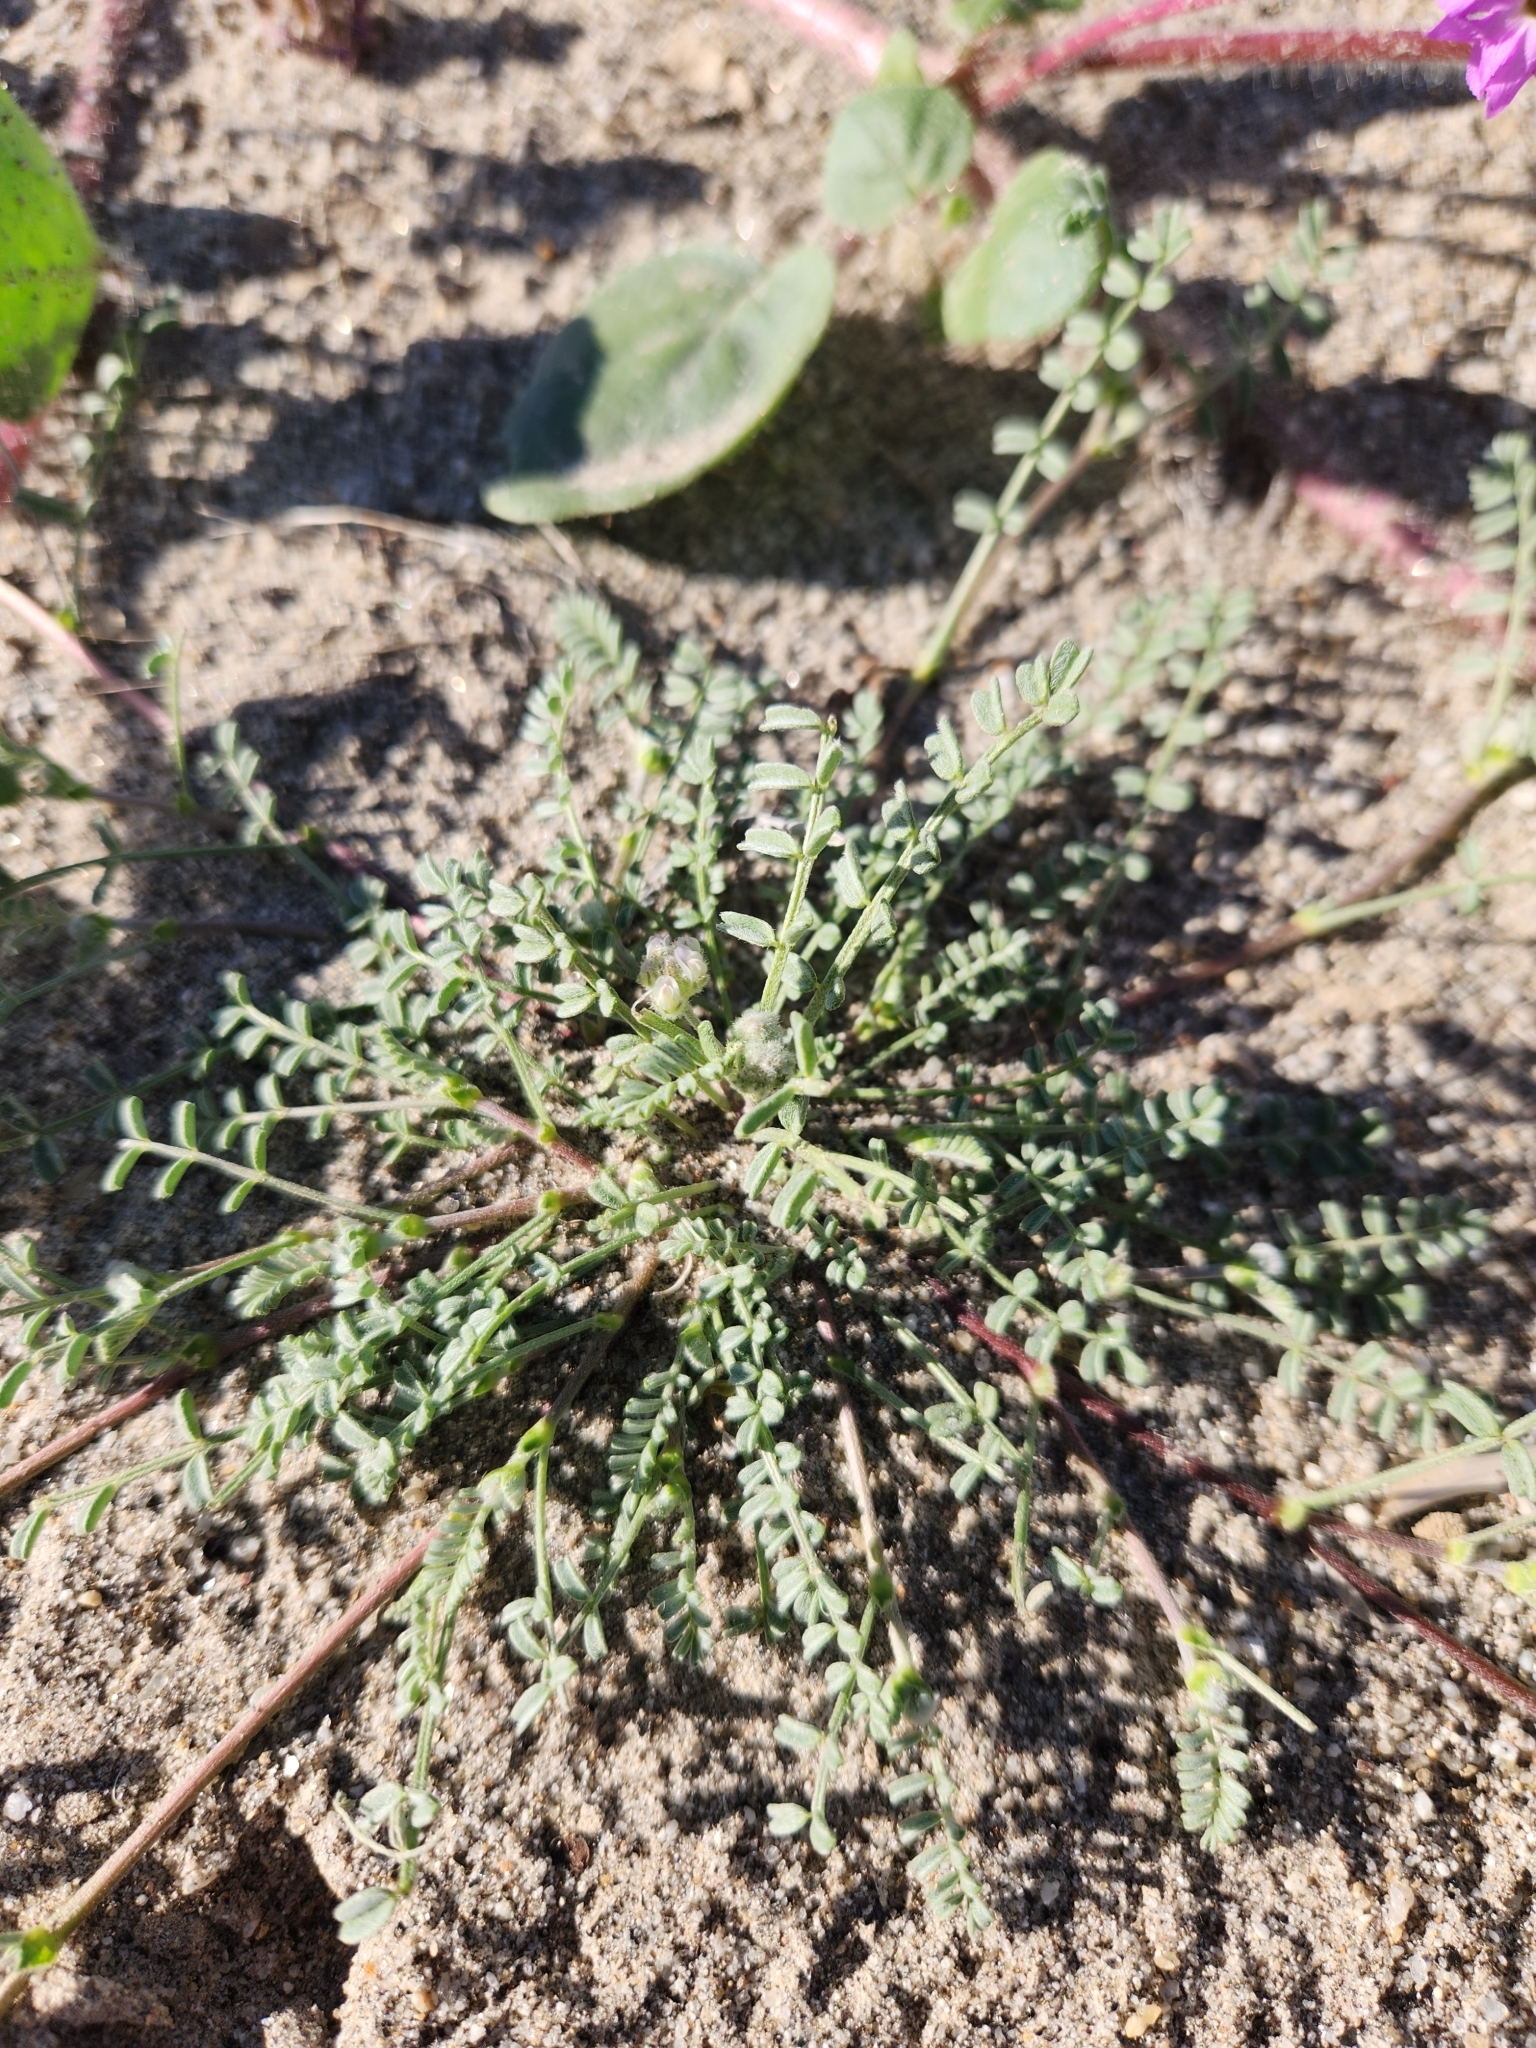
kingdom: Plantae
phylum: Tracheophyta
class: Magnoliopsida
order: Fabales
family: Fabaceae
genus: Astragalus
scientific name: Astragalus didymocarpus
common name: Dwarf white milkvetch
